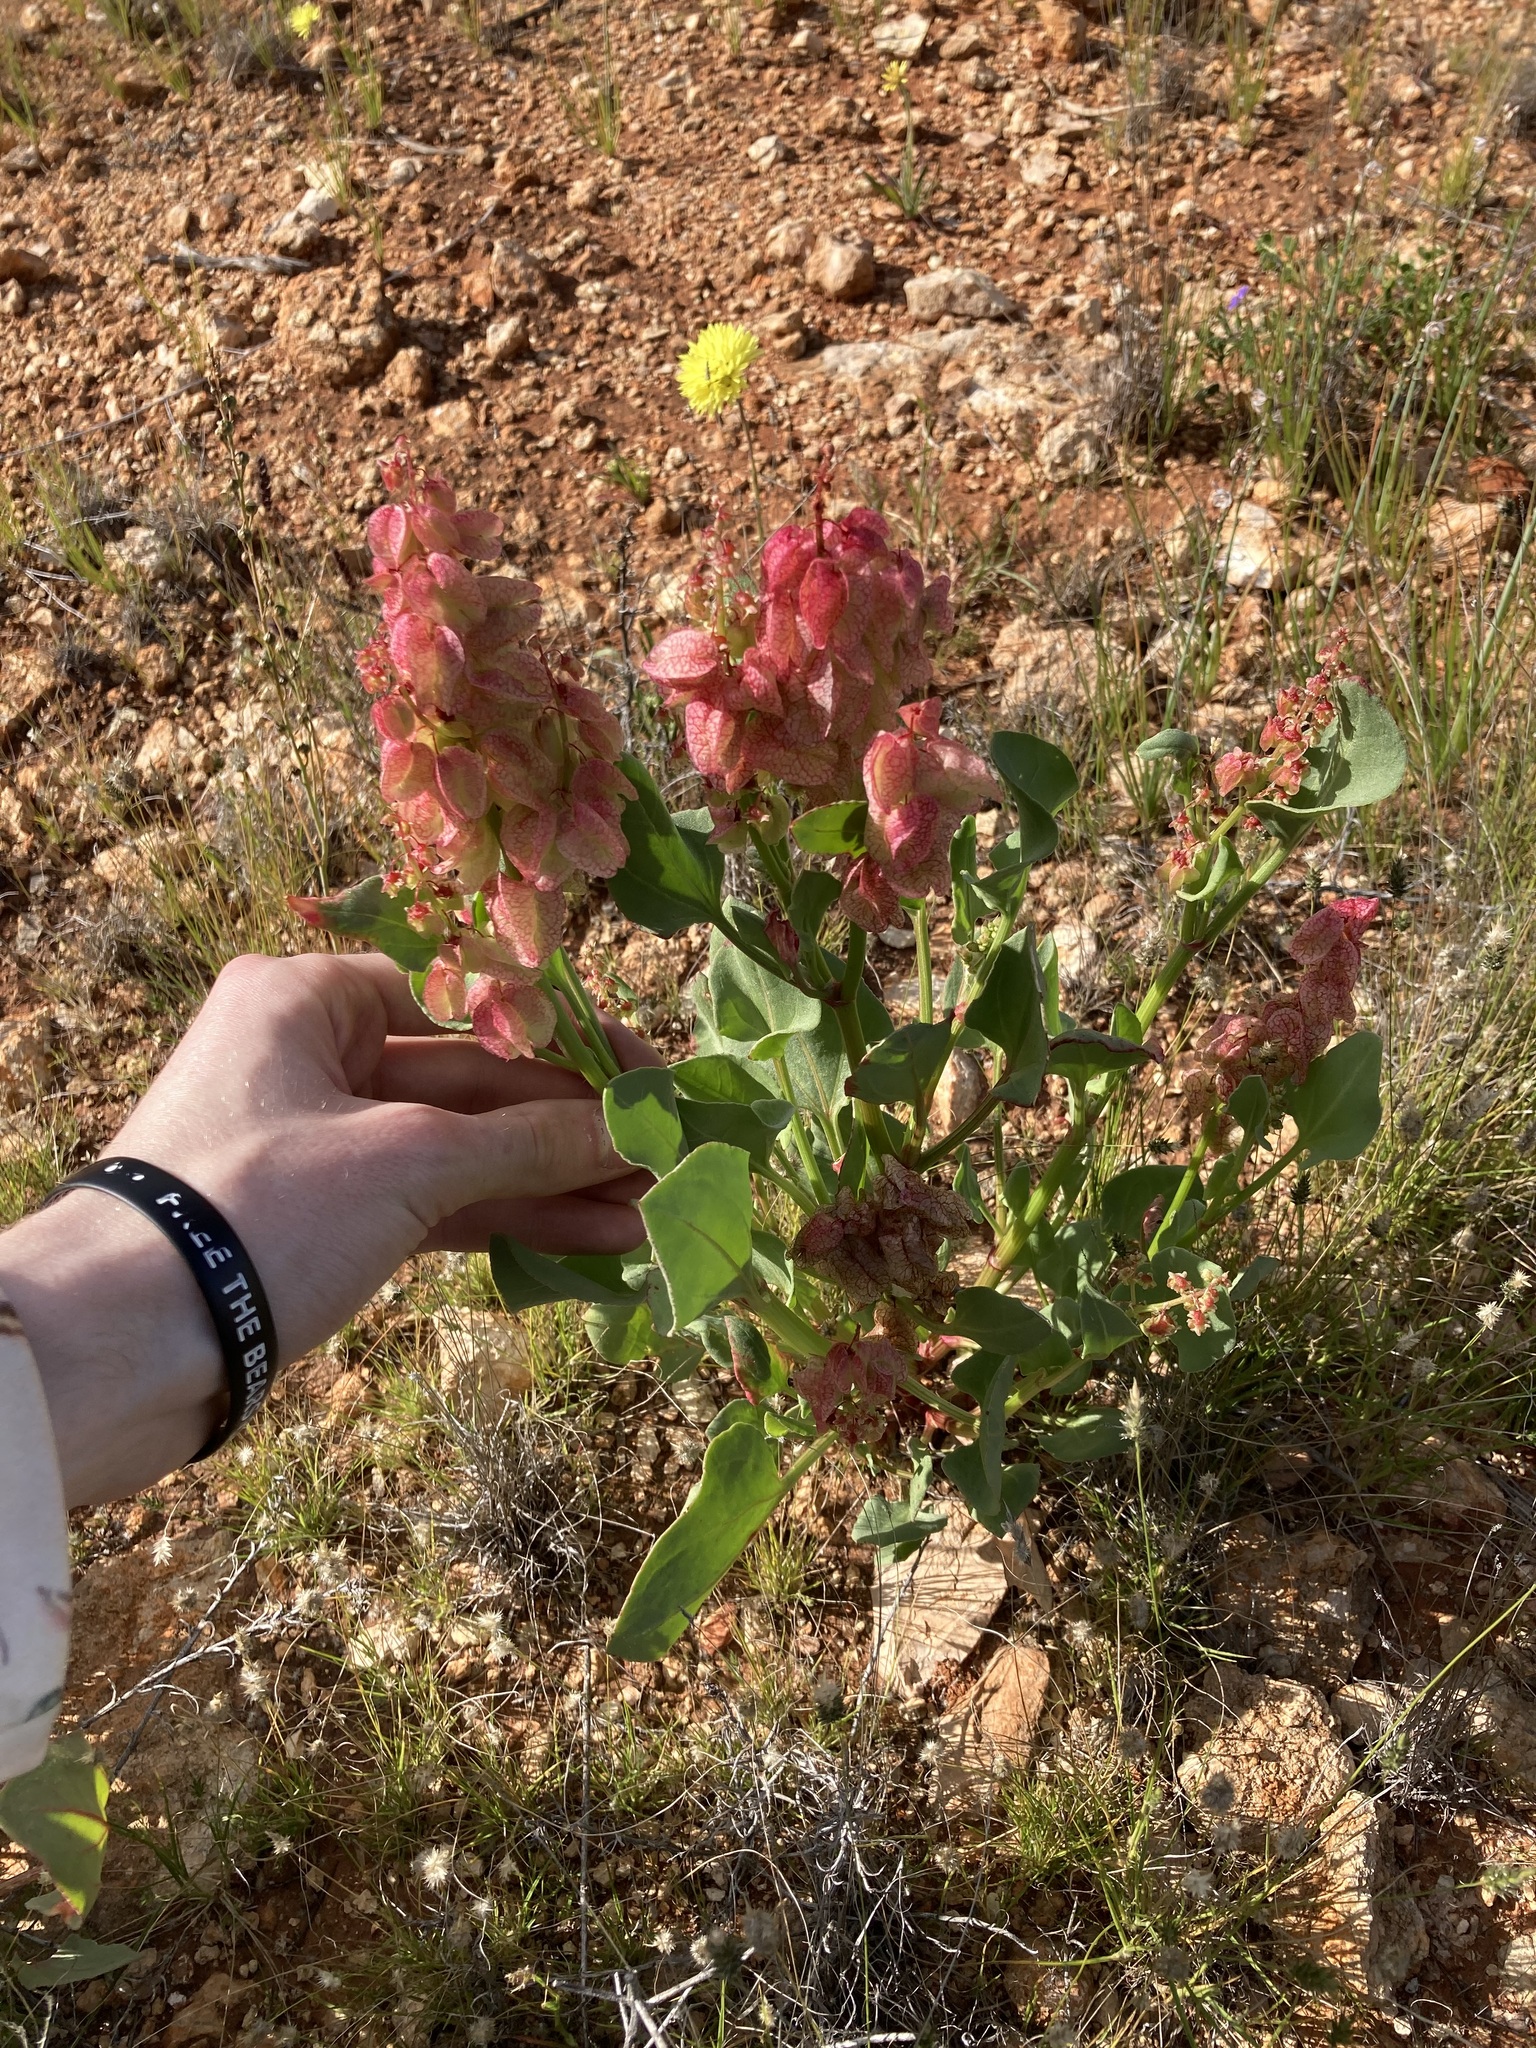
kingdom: Plantae
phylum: Tracheophyta
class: Magnoliopsida
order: Caryophyllales
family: Polygonaceae
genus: Rumex
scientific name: Rumex vesicarius
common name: Bladder dock
